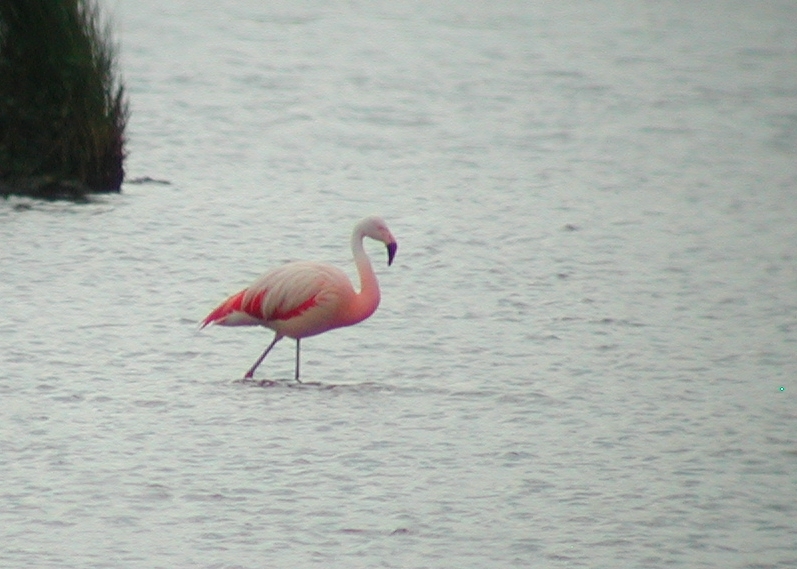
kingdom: Animalia
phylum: Chordata
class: Aves
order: Phoenicopteriformes
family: Phoenicopteridae
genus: Phoenicopterus
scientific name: Phoenicopterus chilensis
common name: Chilean flamingo
